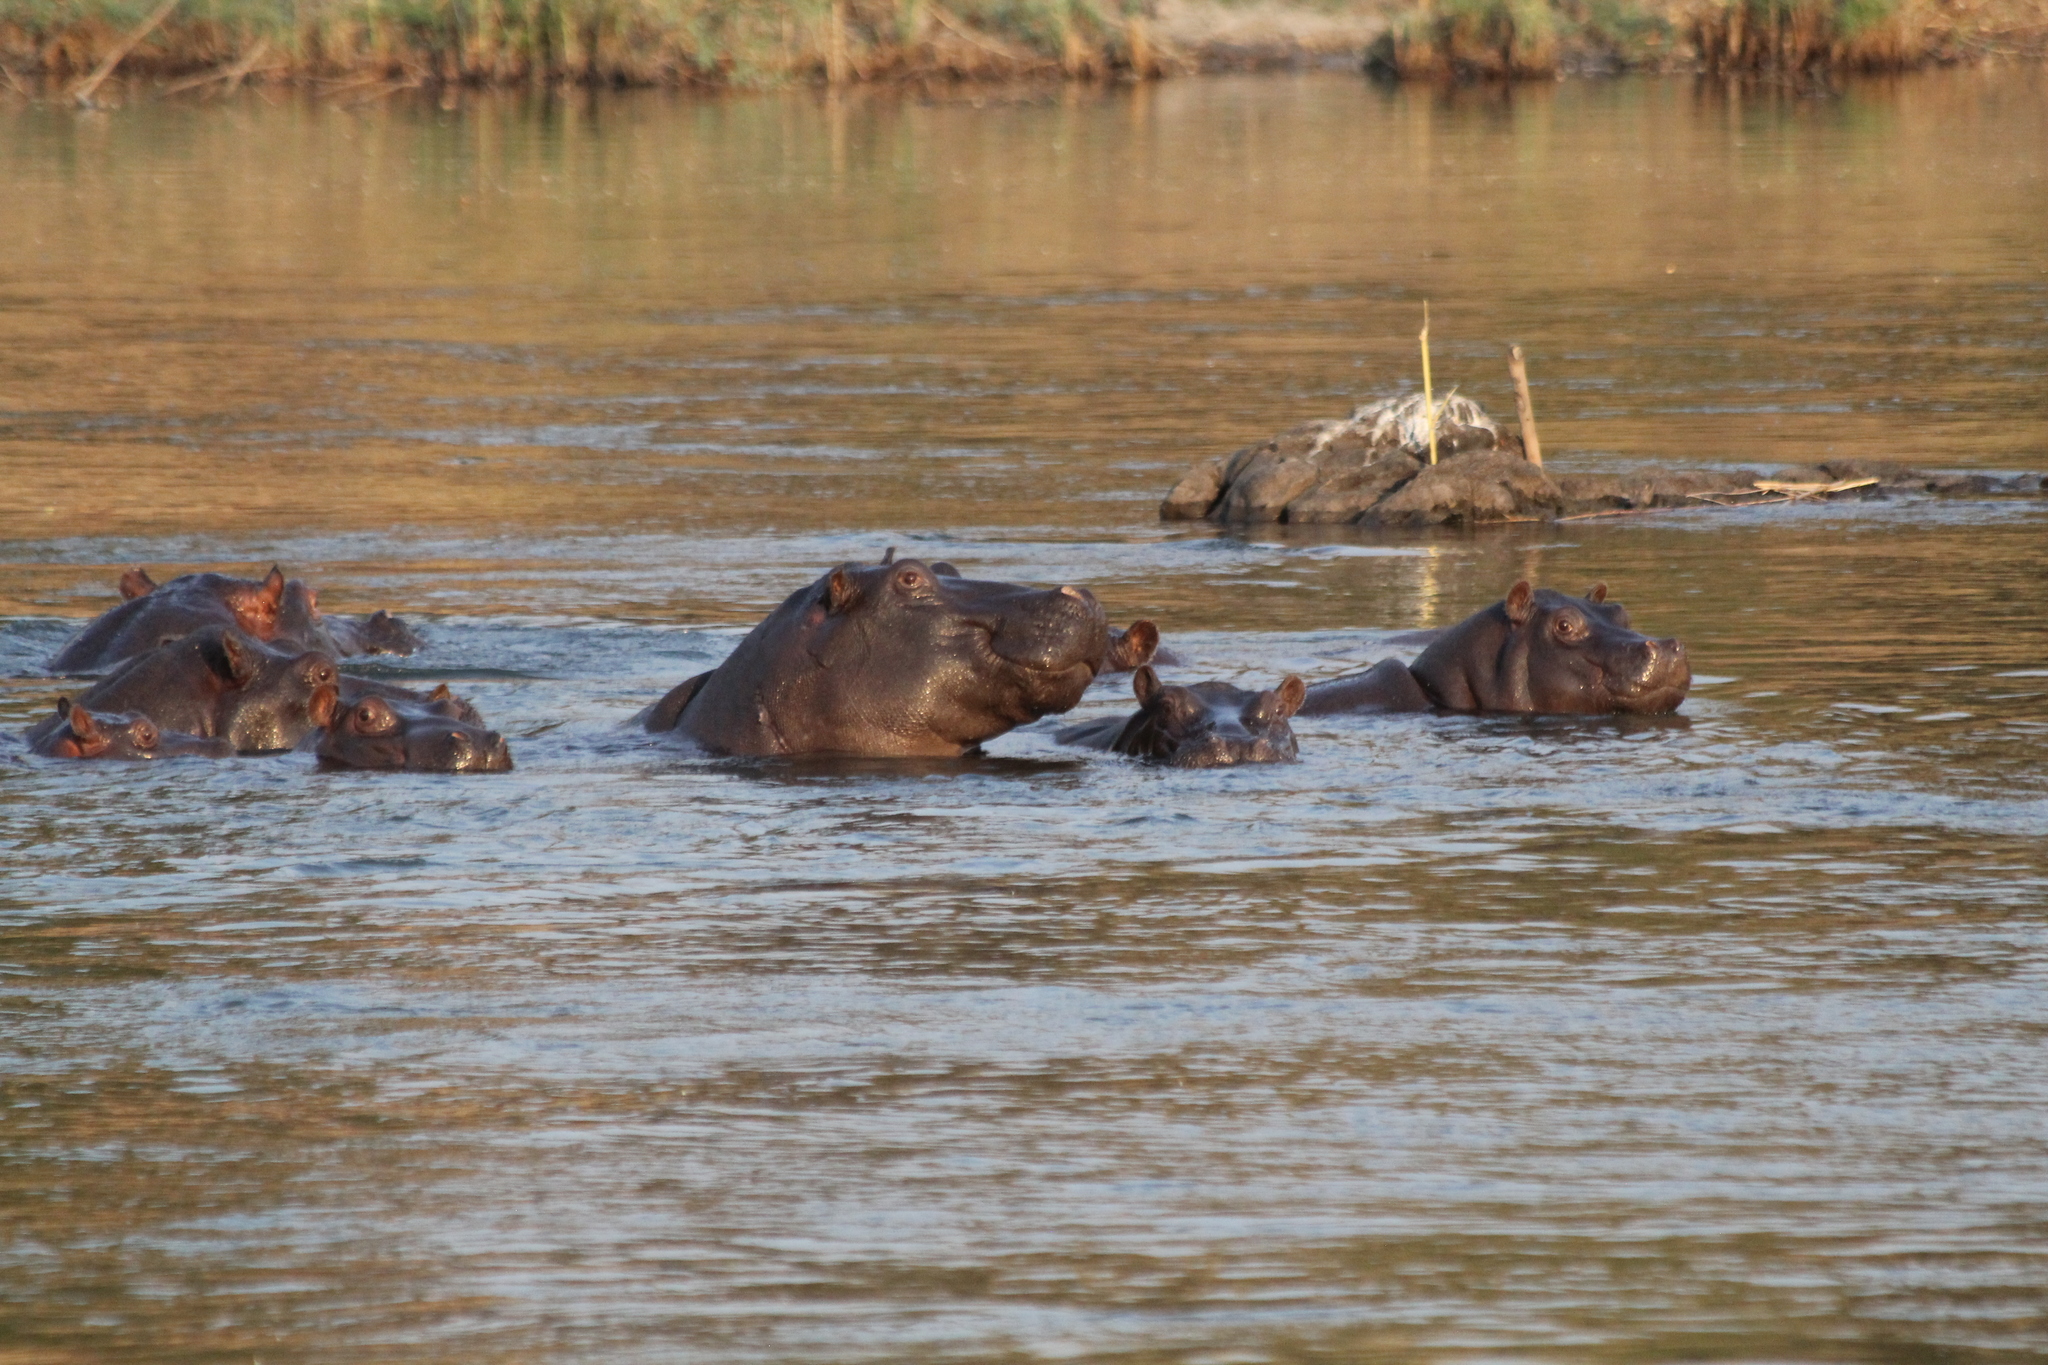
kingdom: Animalia
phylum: Chordata
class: Mammalia
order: Artiodactyla
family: Hippopotamidae
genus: Hippopotamus
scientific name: Hippopotamus amphibius
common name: Common hippopotamus
